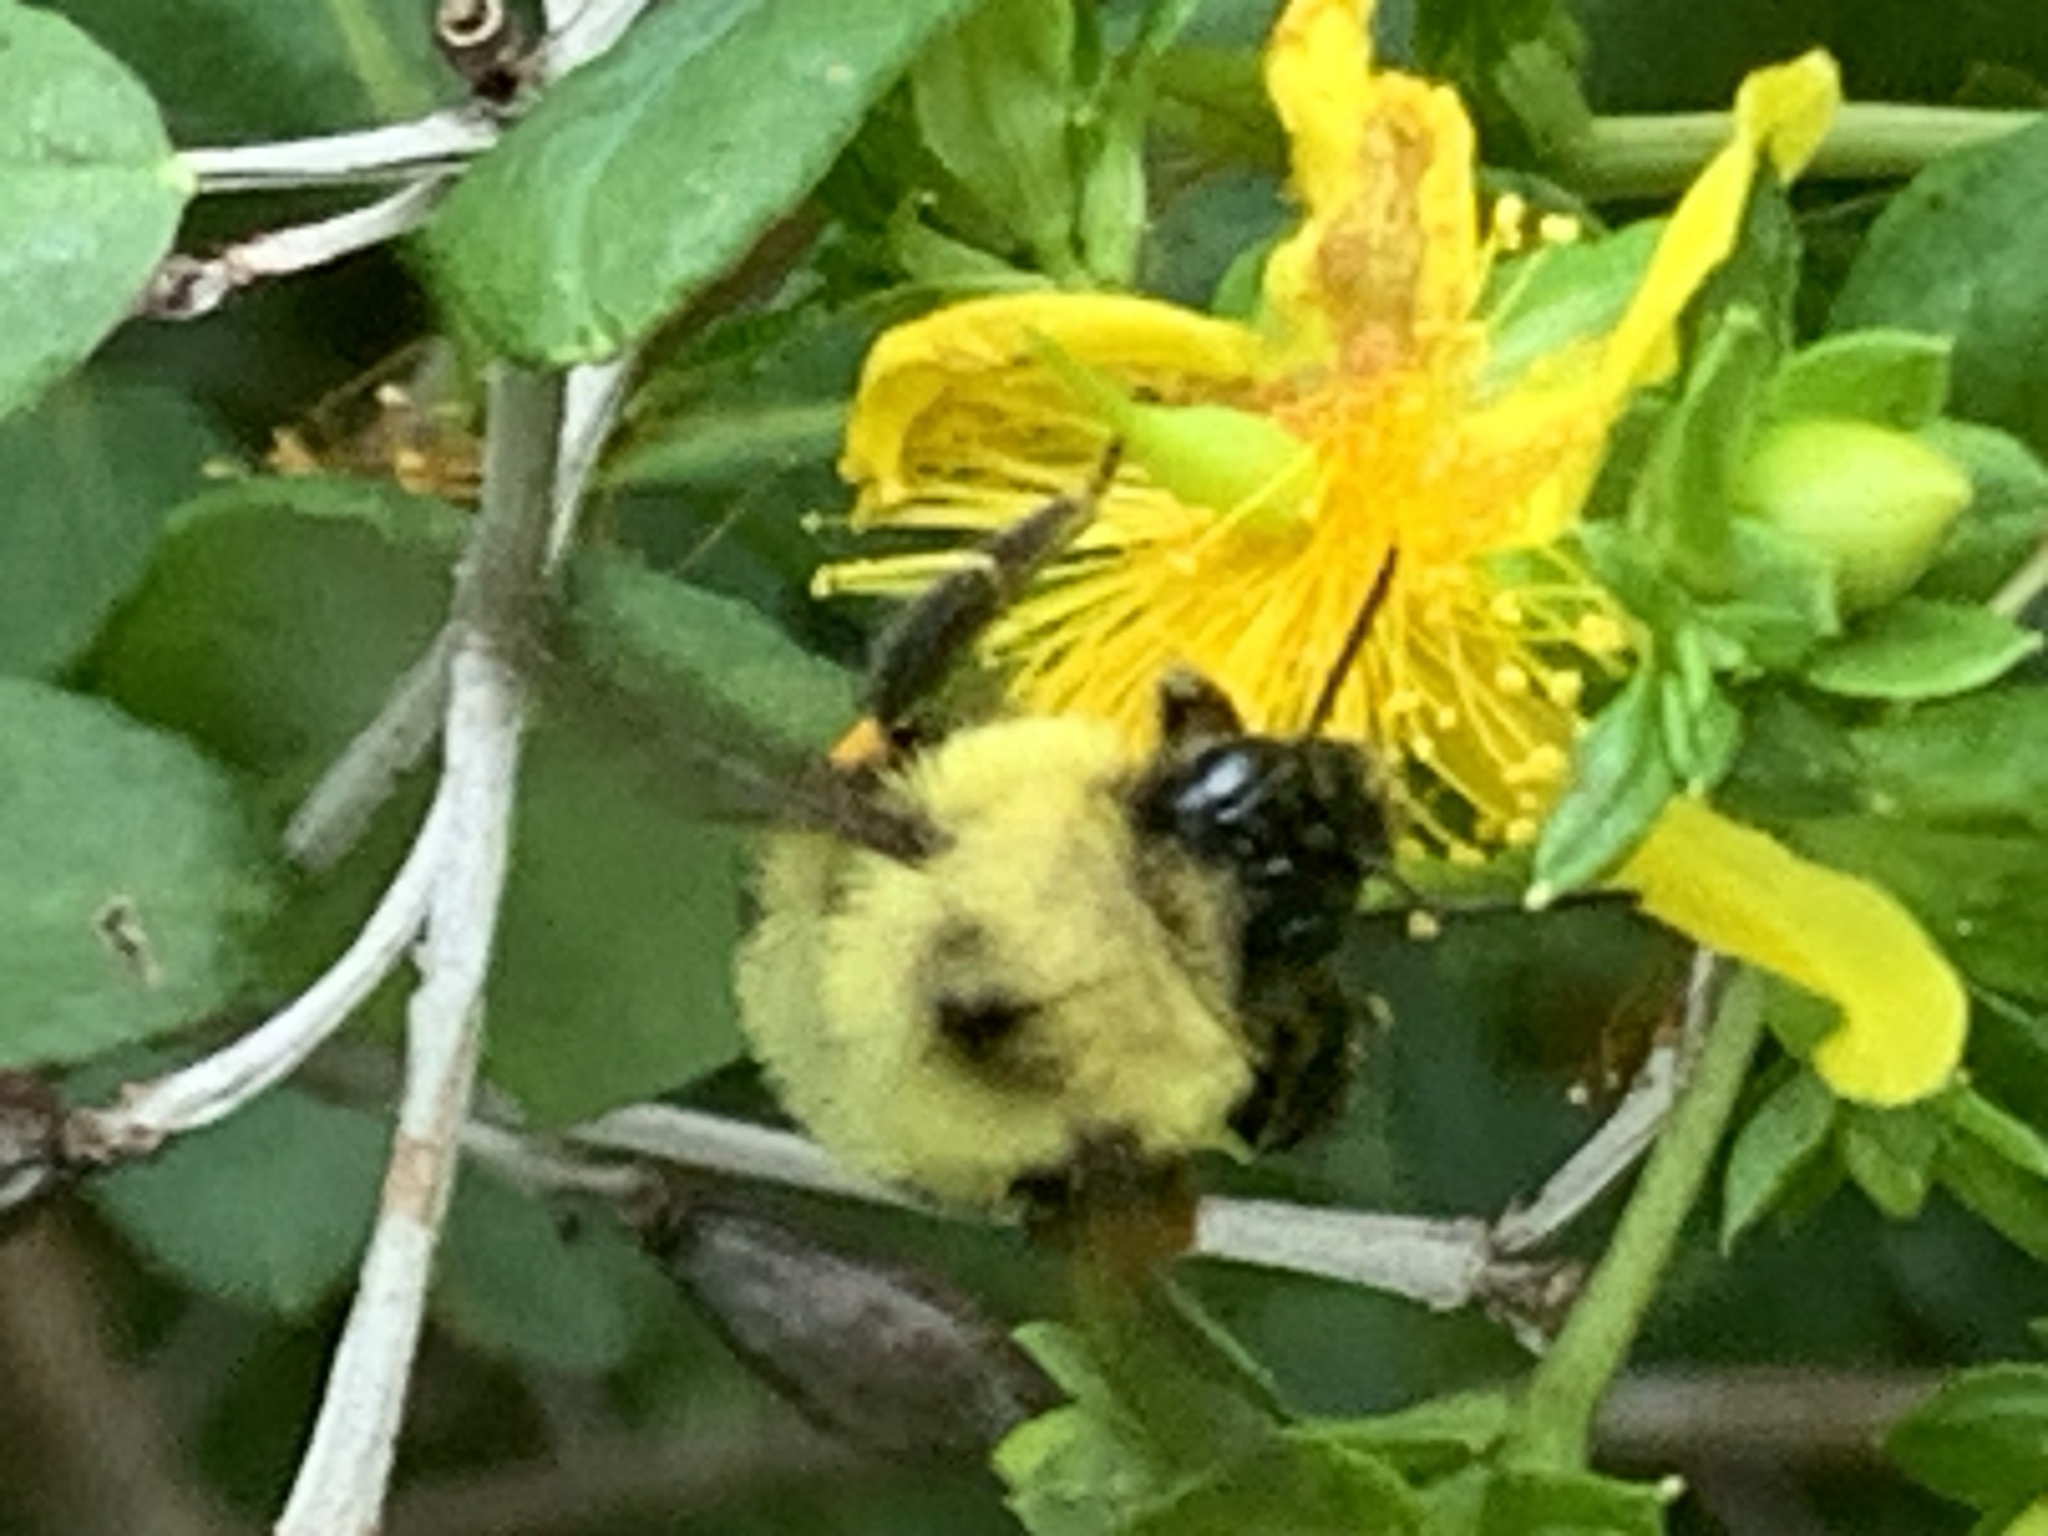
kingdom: Animalia
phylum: Arthropoda
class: Insecta
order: Hymenoptera
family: Apidae
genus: Bombus
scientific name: Bombus bimaculatus
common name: Two-spotted bumble bee
